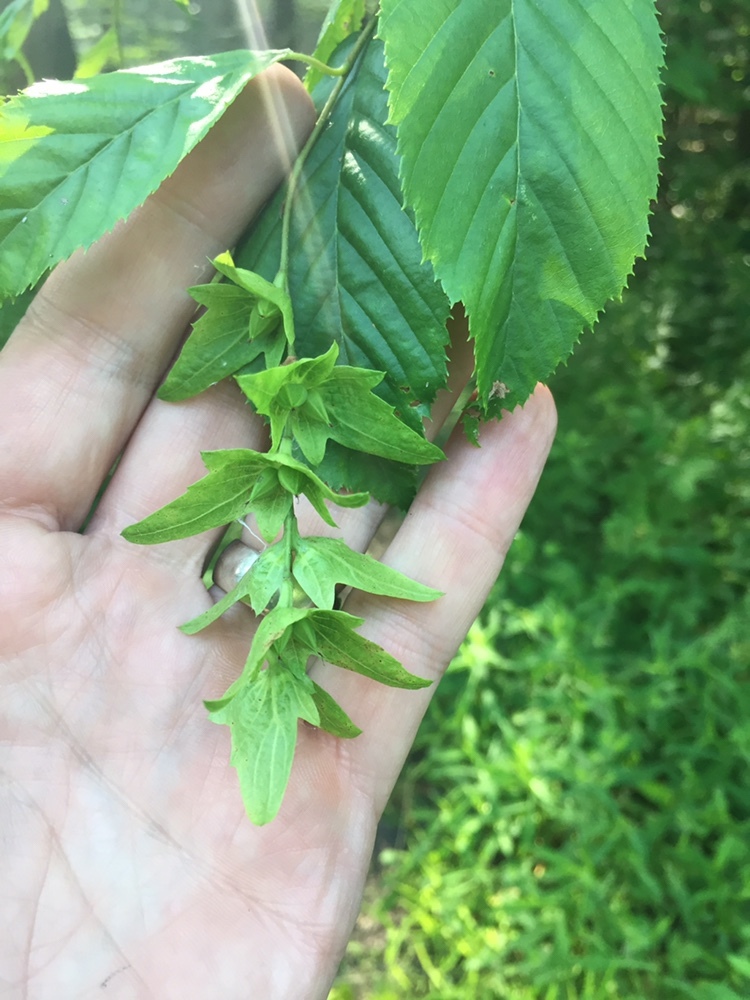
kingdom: Plantae
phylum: Tracheophyta
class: Magnoliopsida
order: Fagales
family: Betulaceae
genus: Carpinus
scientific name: Carpinus caroliniana
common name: American hornbeam
